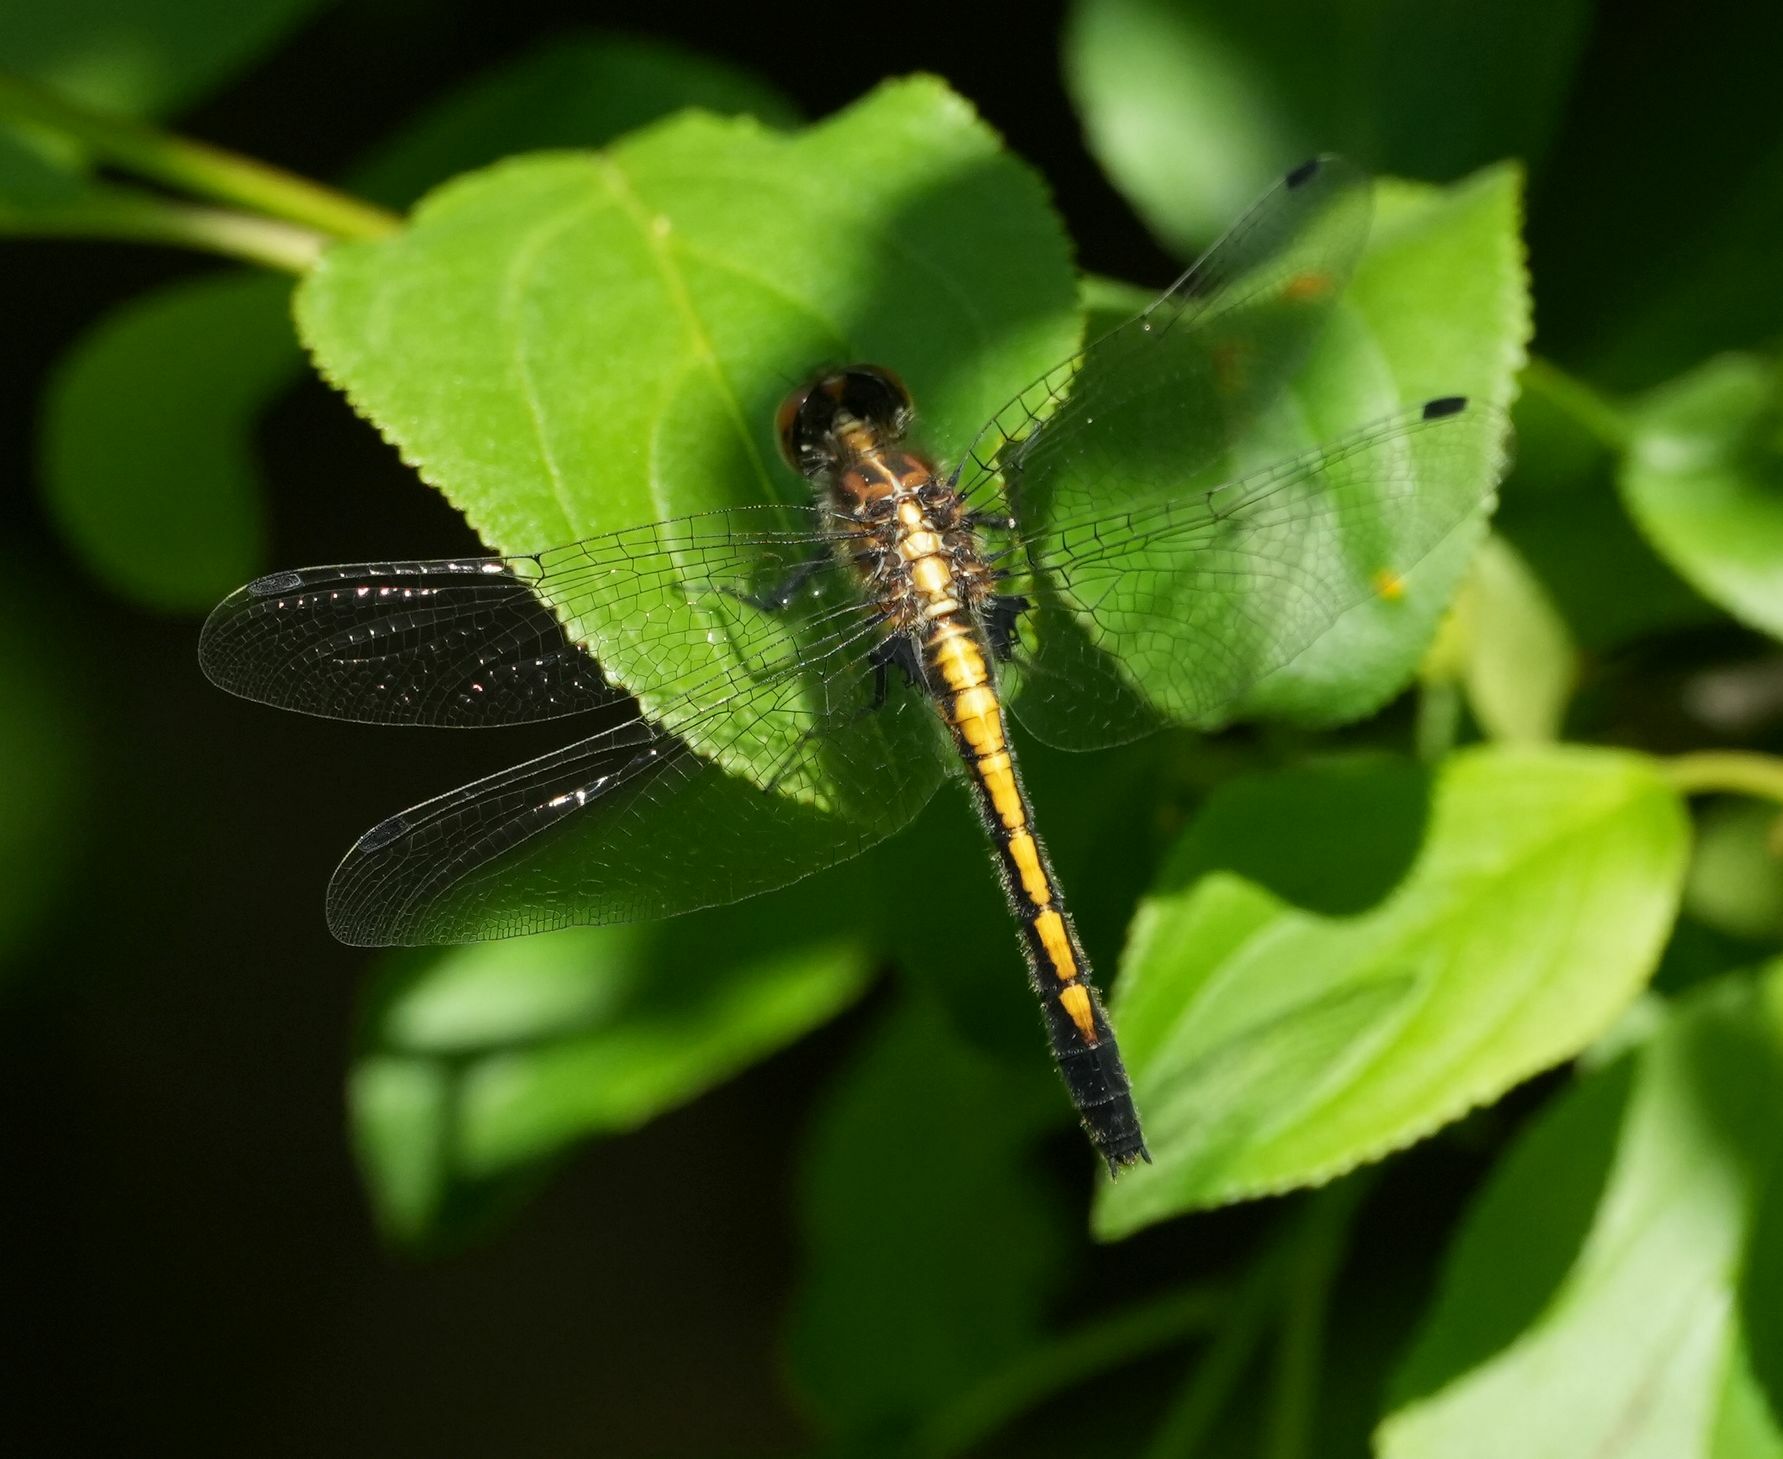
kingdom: Animalia
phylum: Arthropoda
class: Insecta
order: Odonata
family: Libellulidae
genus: Leucorrhinia
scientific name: Leucorrhinia intacta
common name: Dot-tailed whiteface
